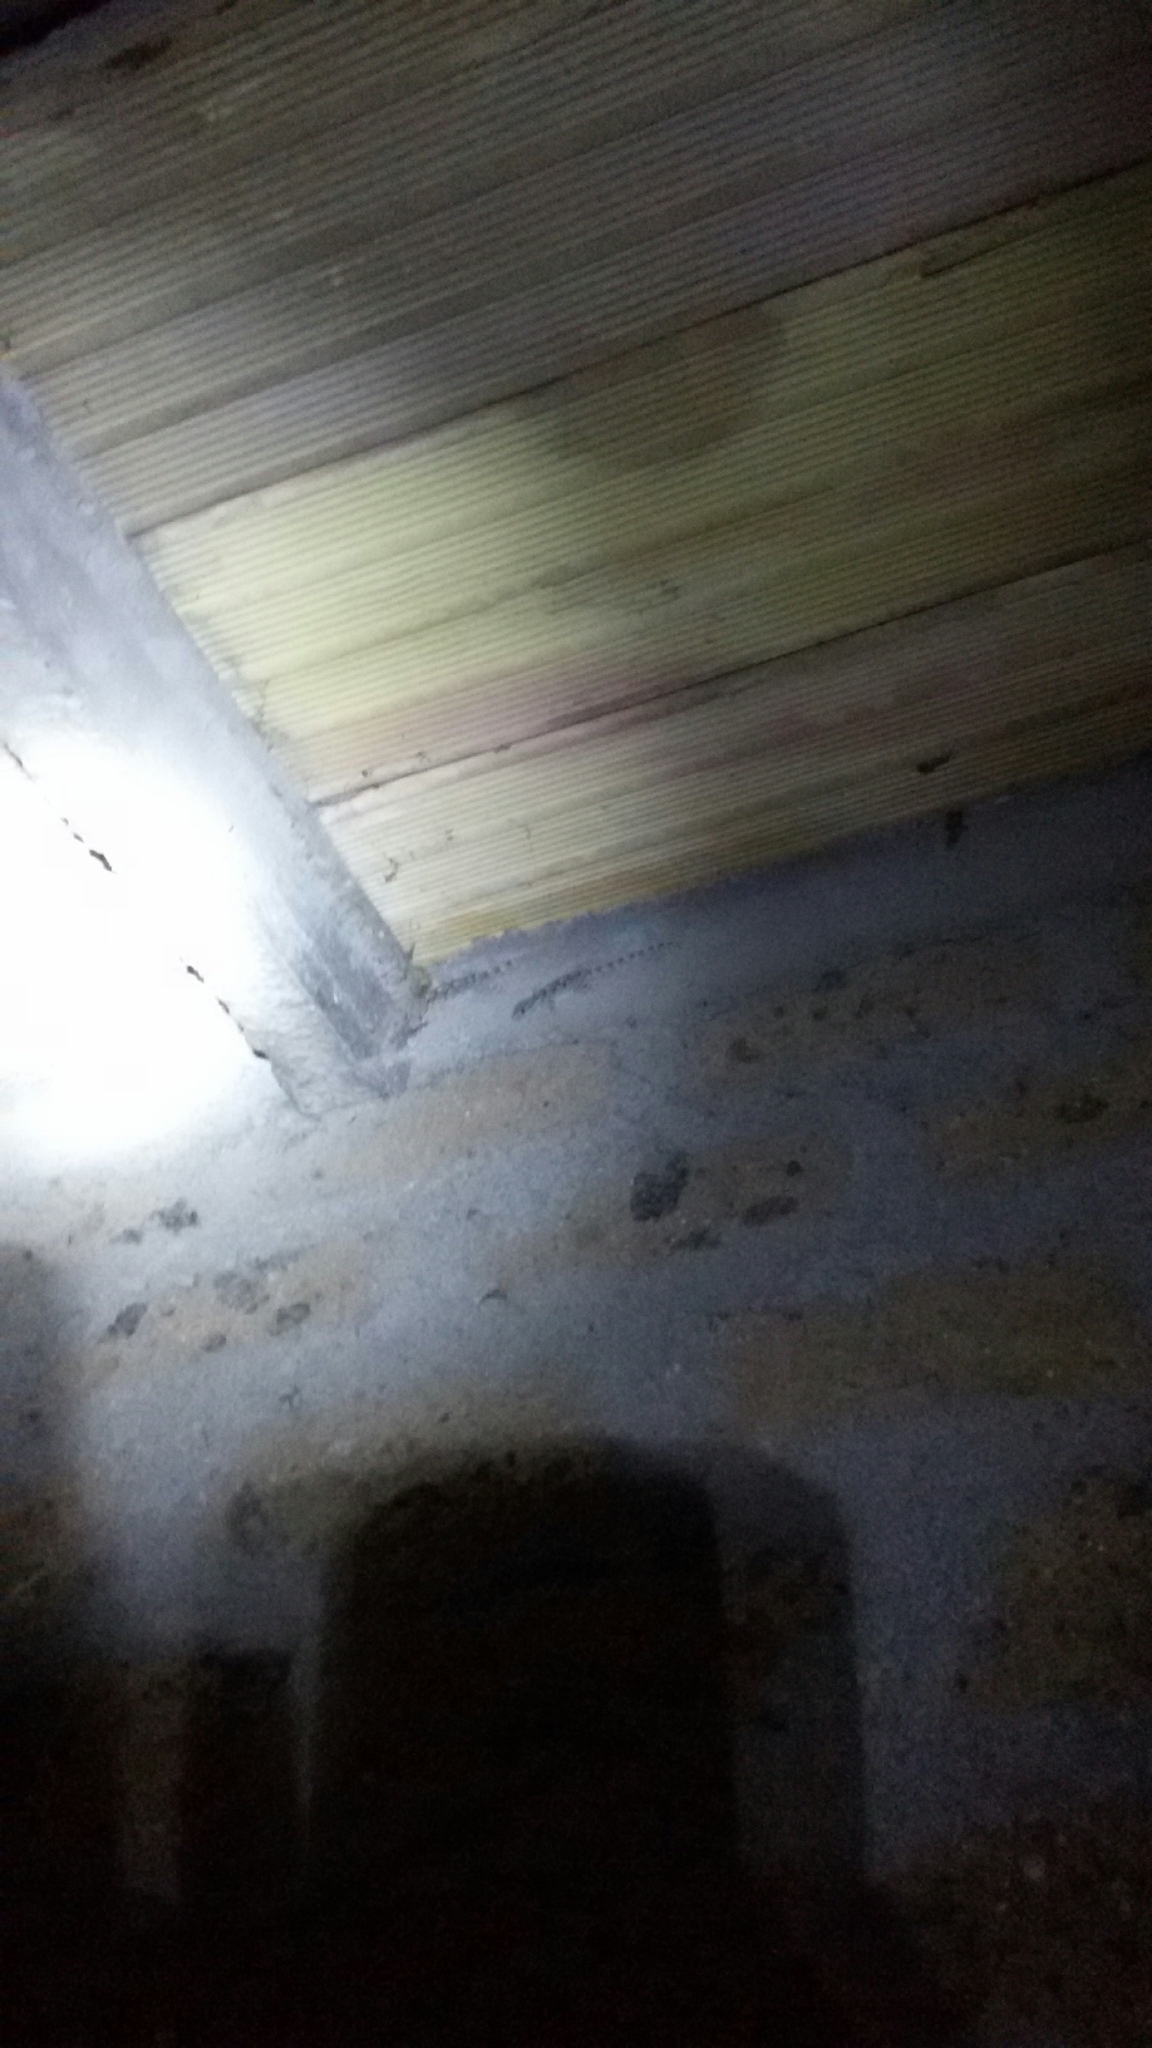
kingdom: Animalia
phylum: Chordata
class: Squamata
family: Phyllodactylidae
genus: Tarentola
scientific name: Tarentola mauritanica
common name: Moorish gecko
